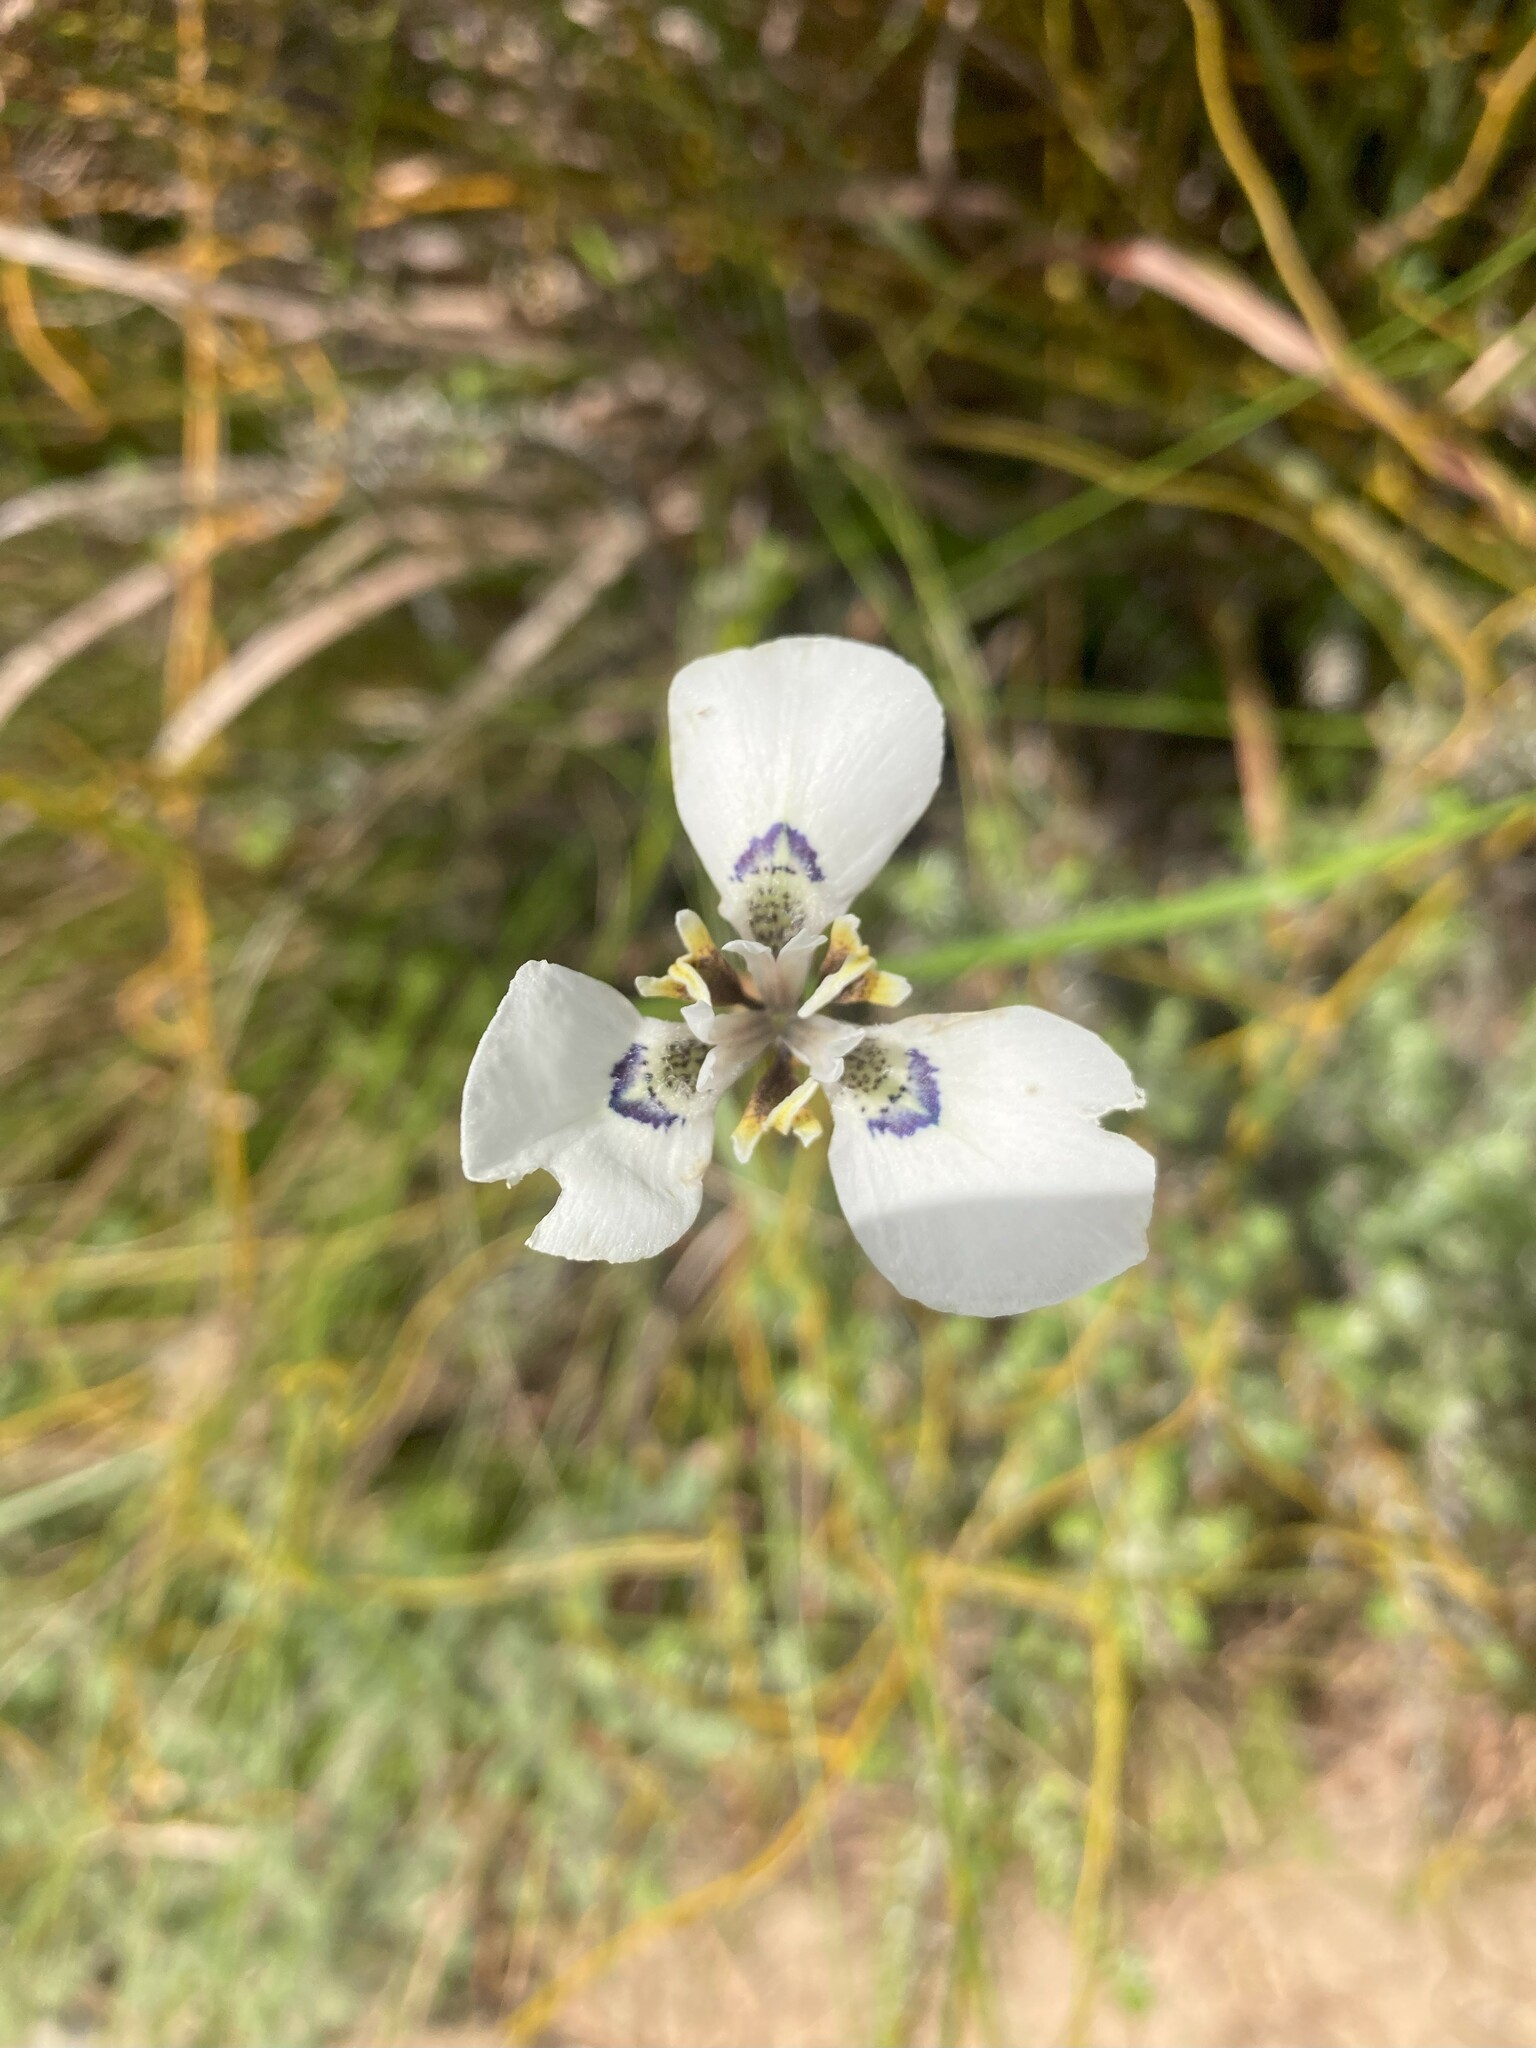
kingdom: Plantae
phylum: Tracheophyta
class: Liliopsida
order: Asparagales
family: Iridaceae
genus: Moraea
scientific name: Moraea tricuspidata
